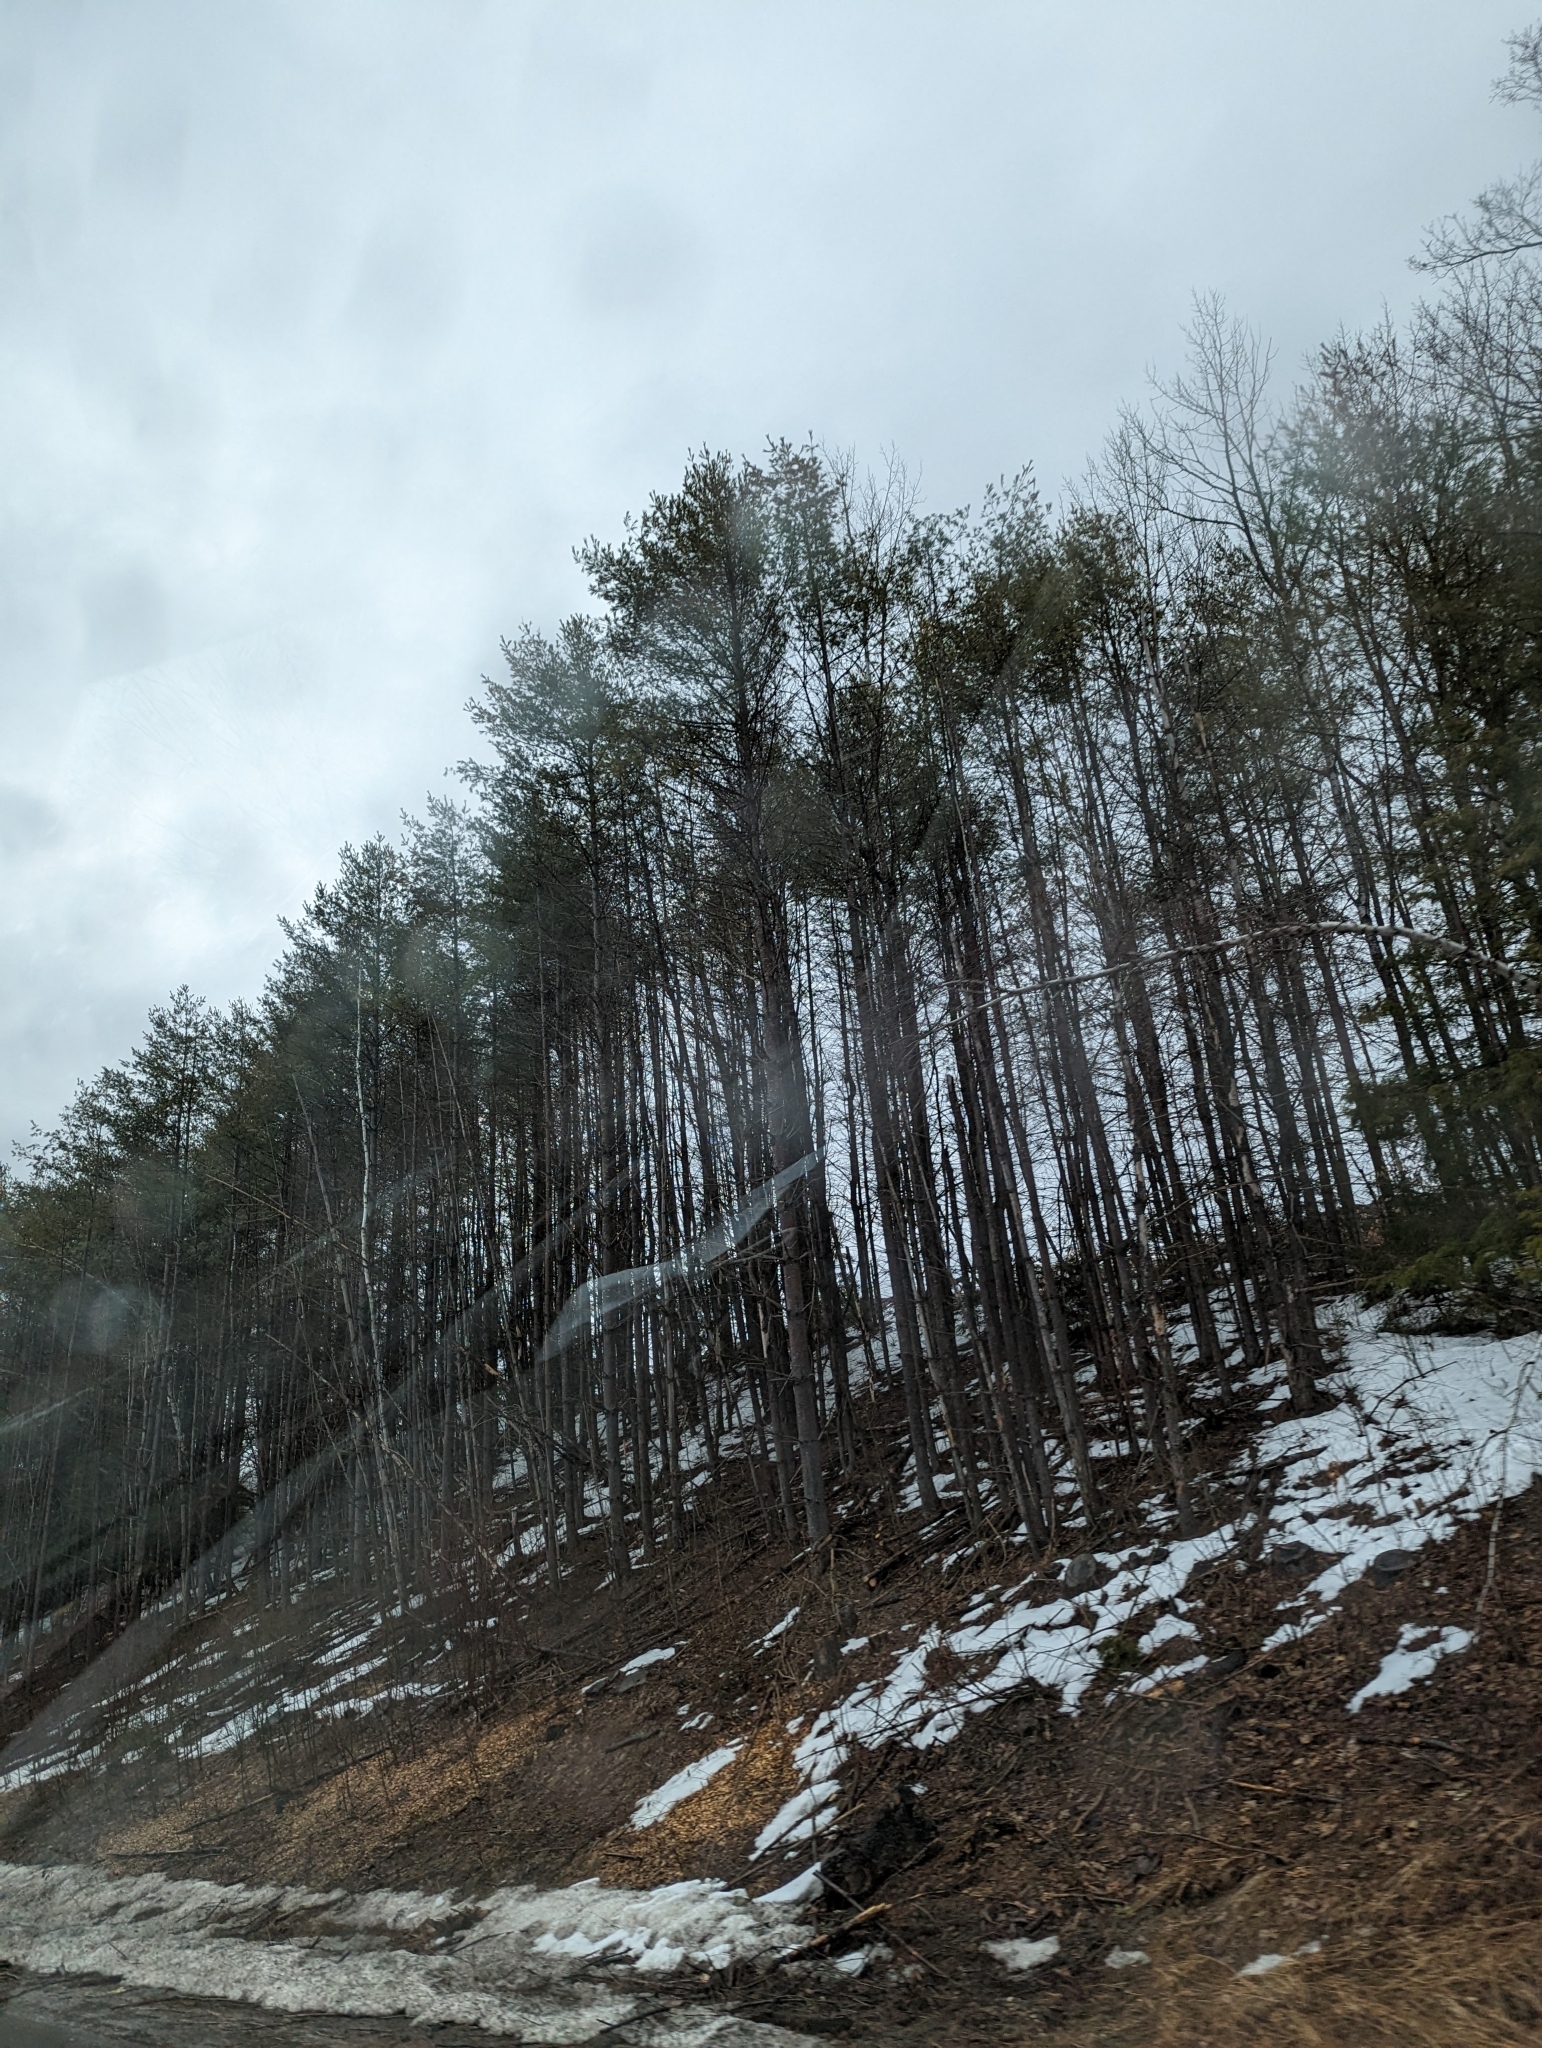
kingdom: Plantae
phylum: Tracheophyta
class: Pinopsida
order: Pinales
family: Pinaceae
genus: Pinus
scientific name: Pinus strobus
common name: Weymouth pine
